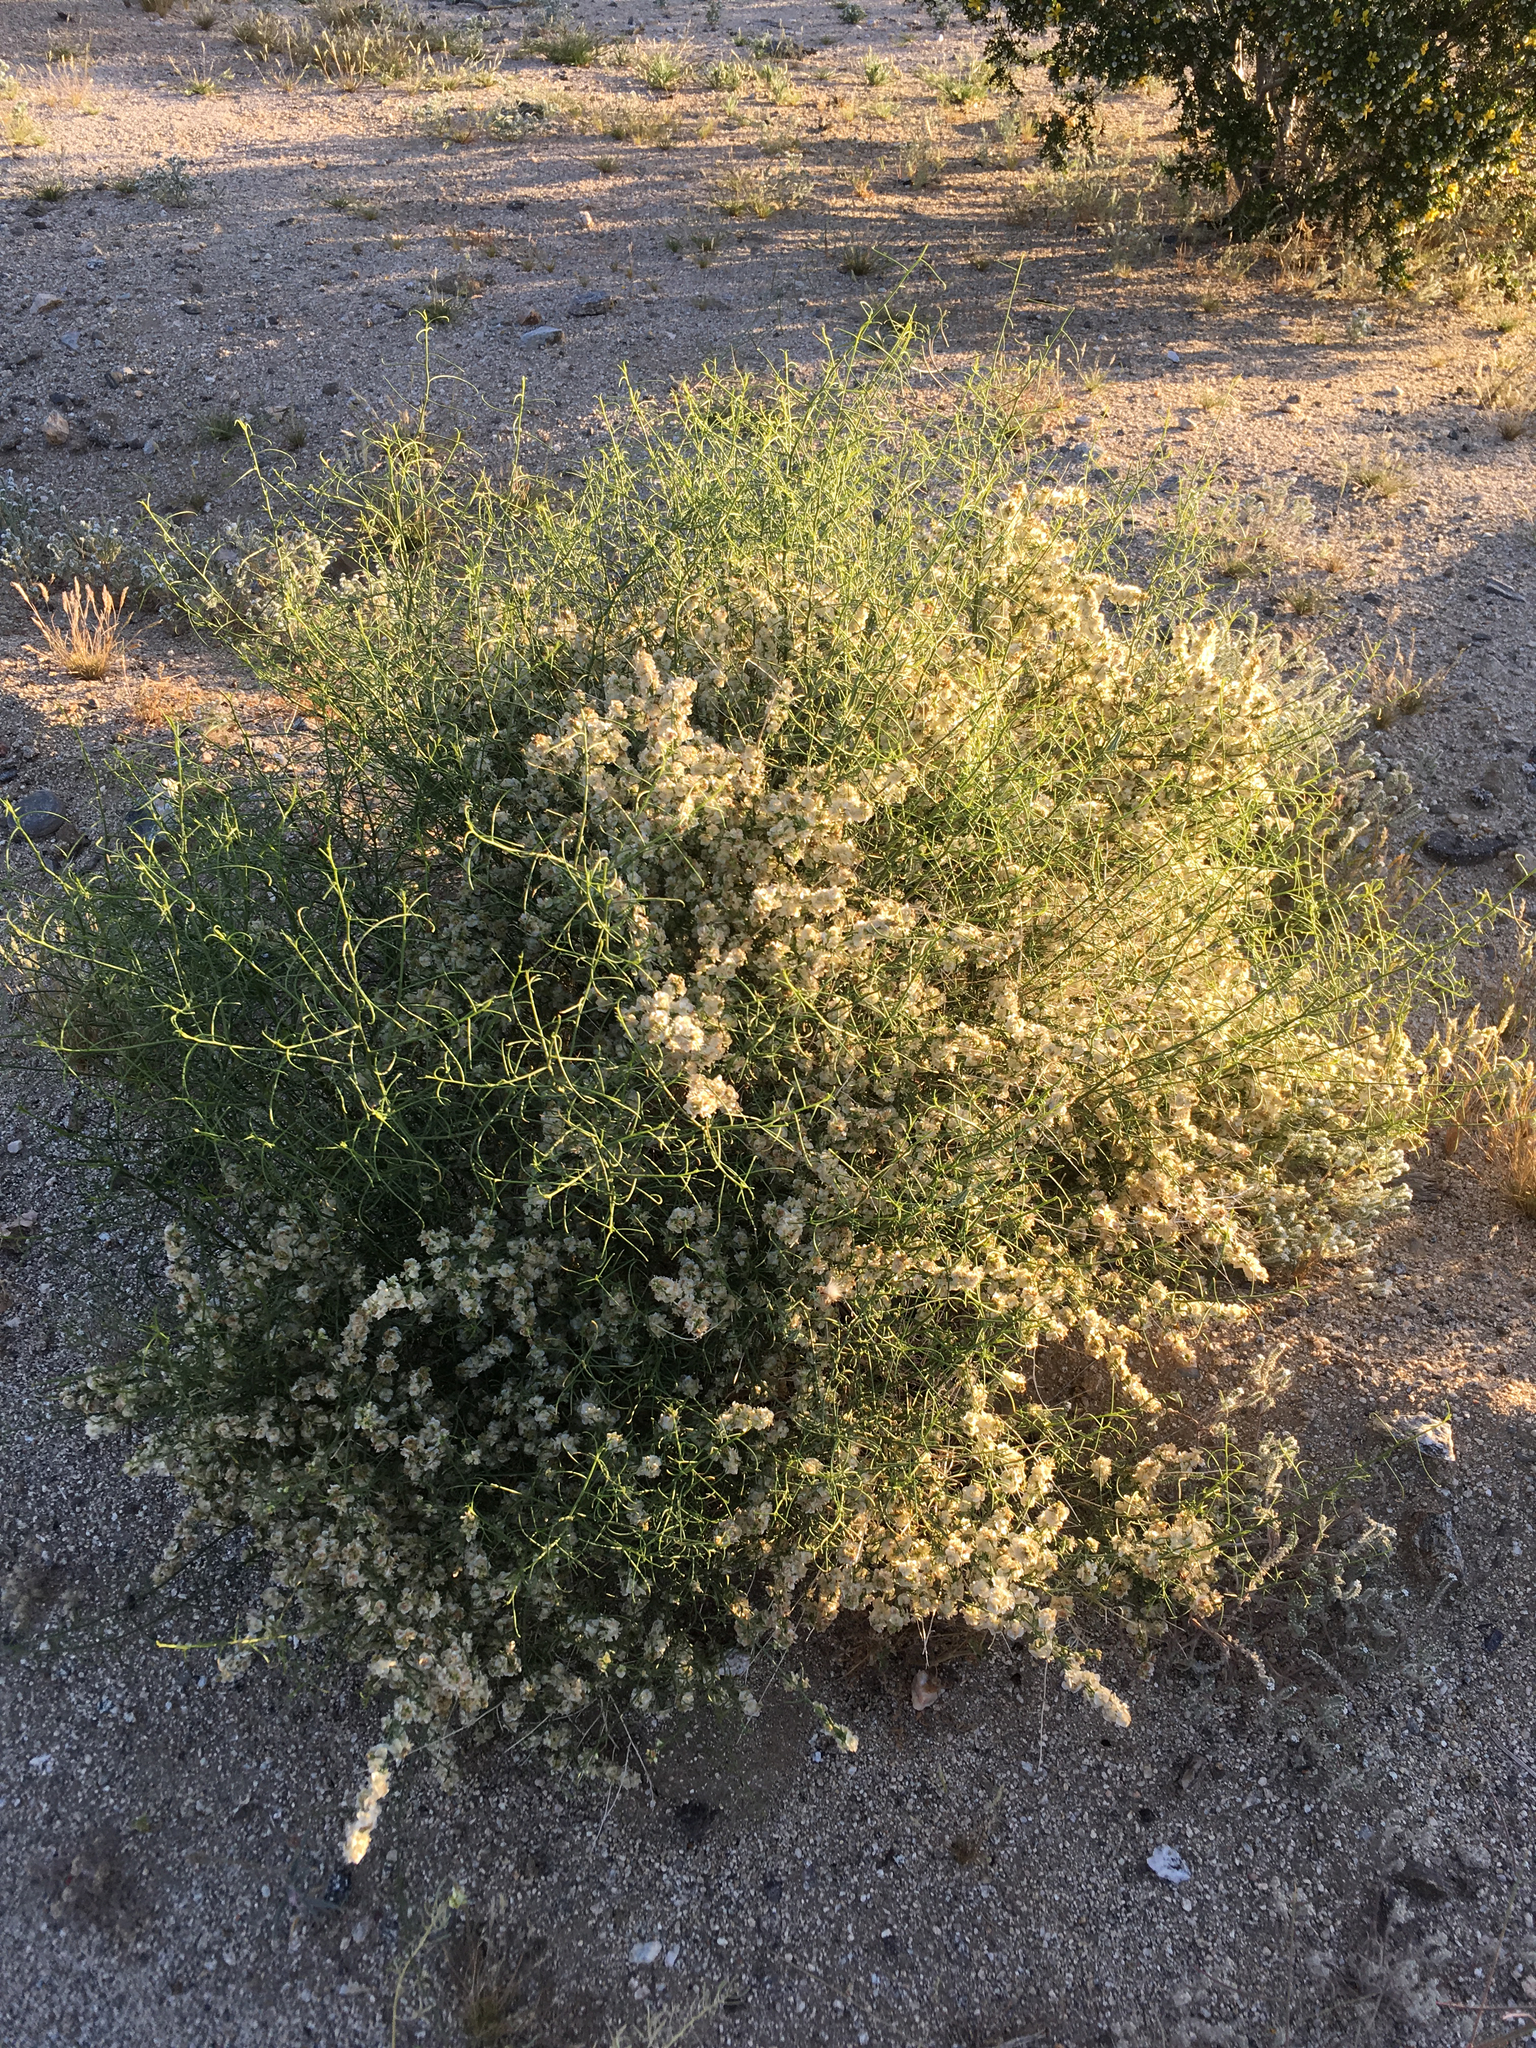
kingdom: Plantae
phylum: Tracheophyta
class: Magnoliopsida
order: Asterales
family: Asteraceae
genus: Ambrosia
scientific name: Ambrosia salsola
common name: Burrobrush
